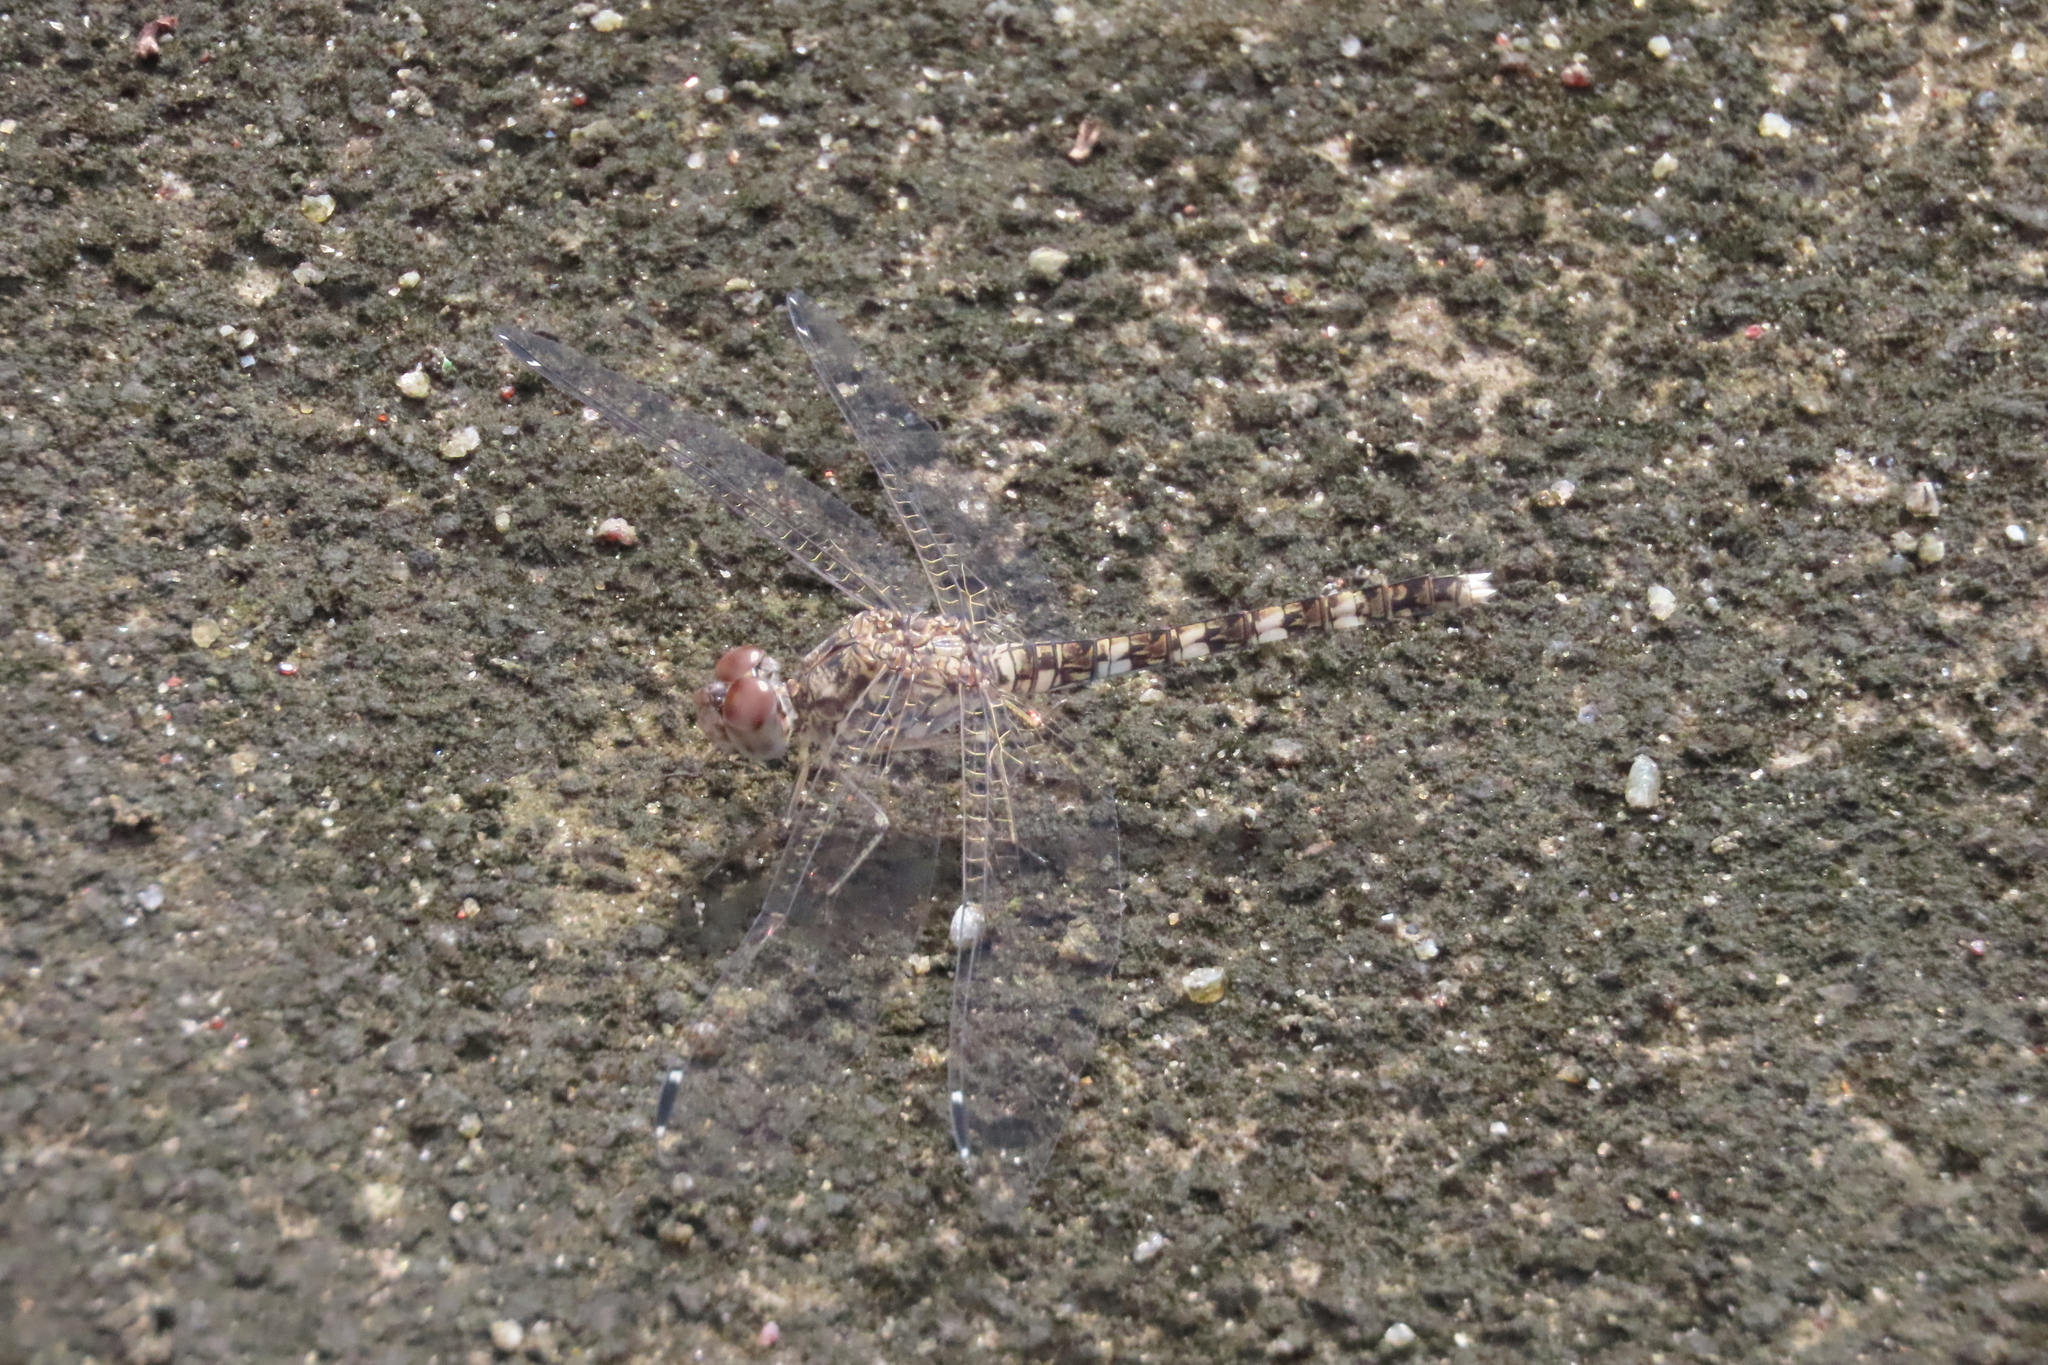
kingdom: Animalia
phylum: Arthropoda
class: Insecta
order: Odonata
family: Libellulidae
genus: Bradinopyga
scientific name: Bradinopyga geminata
